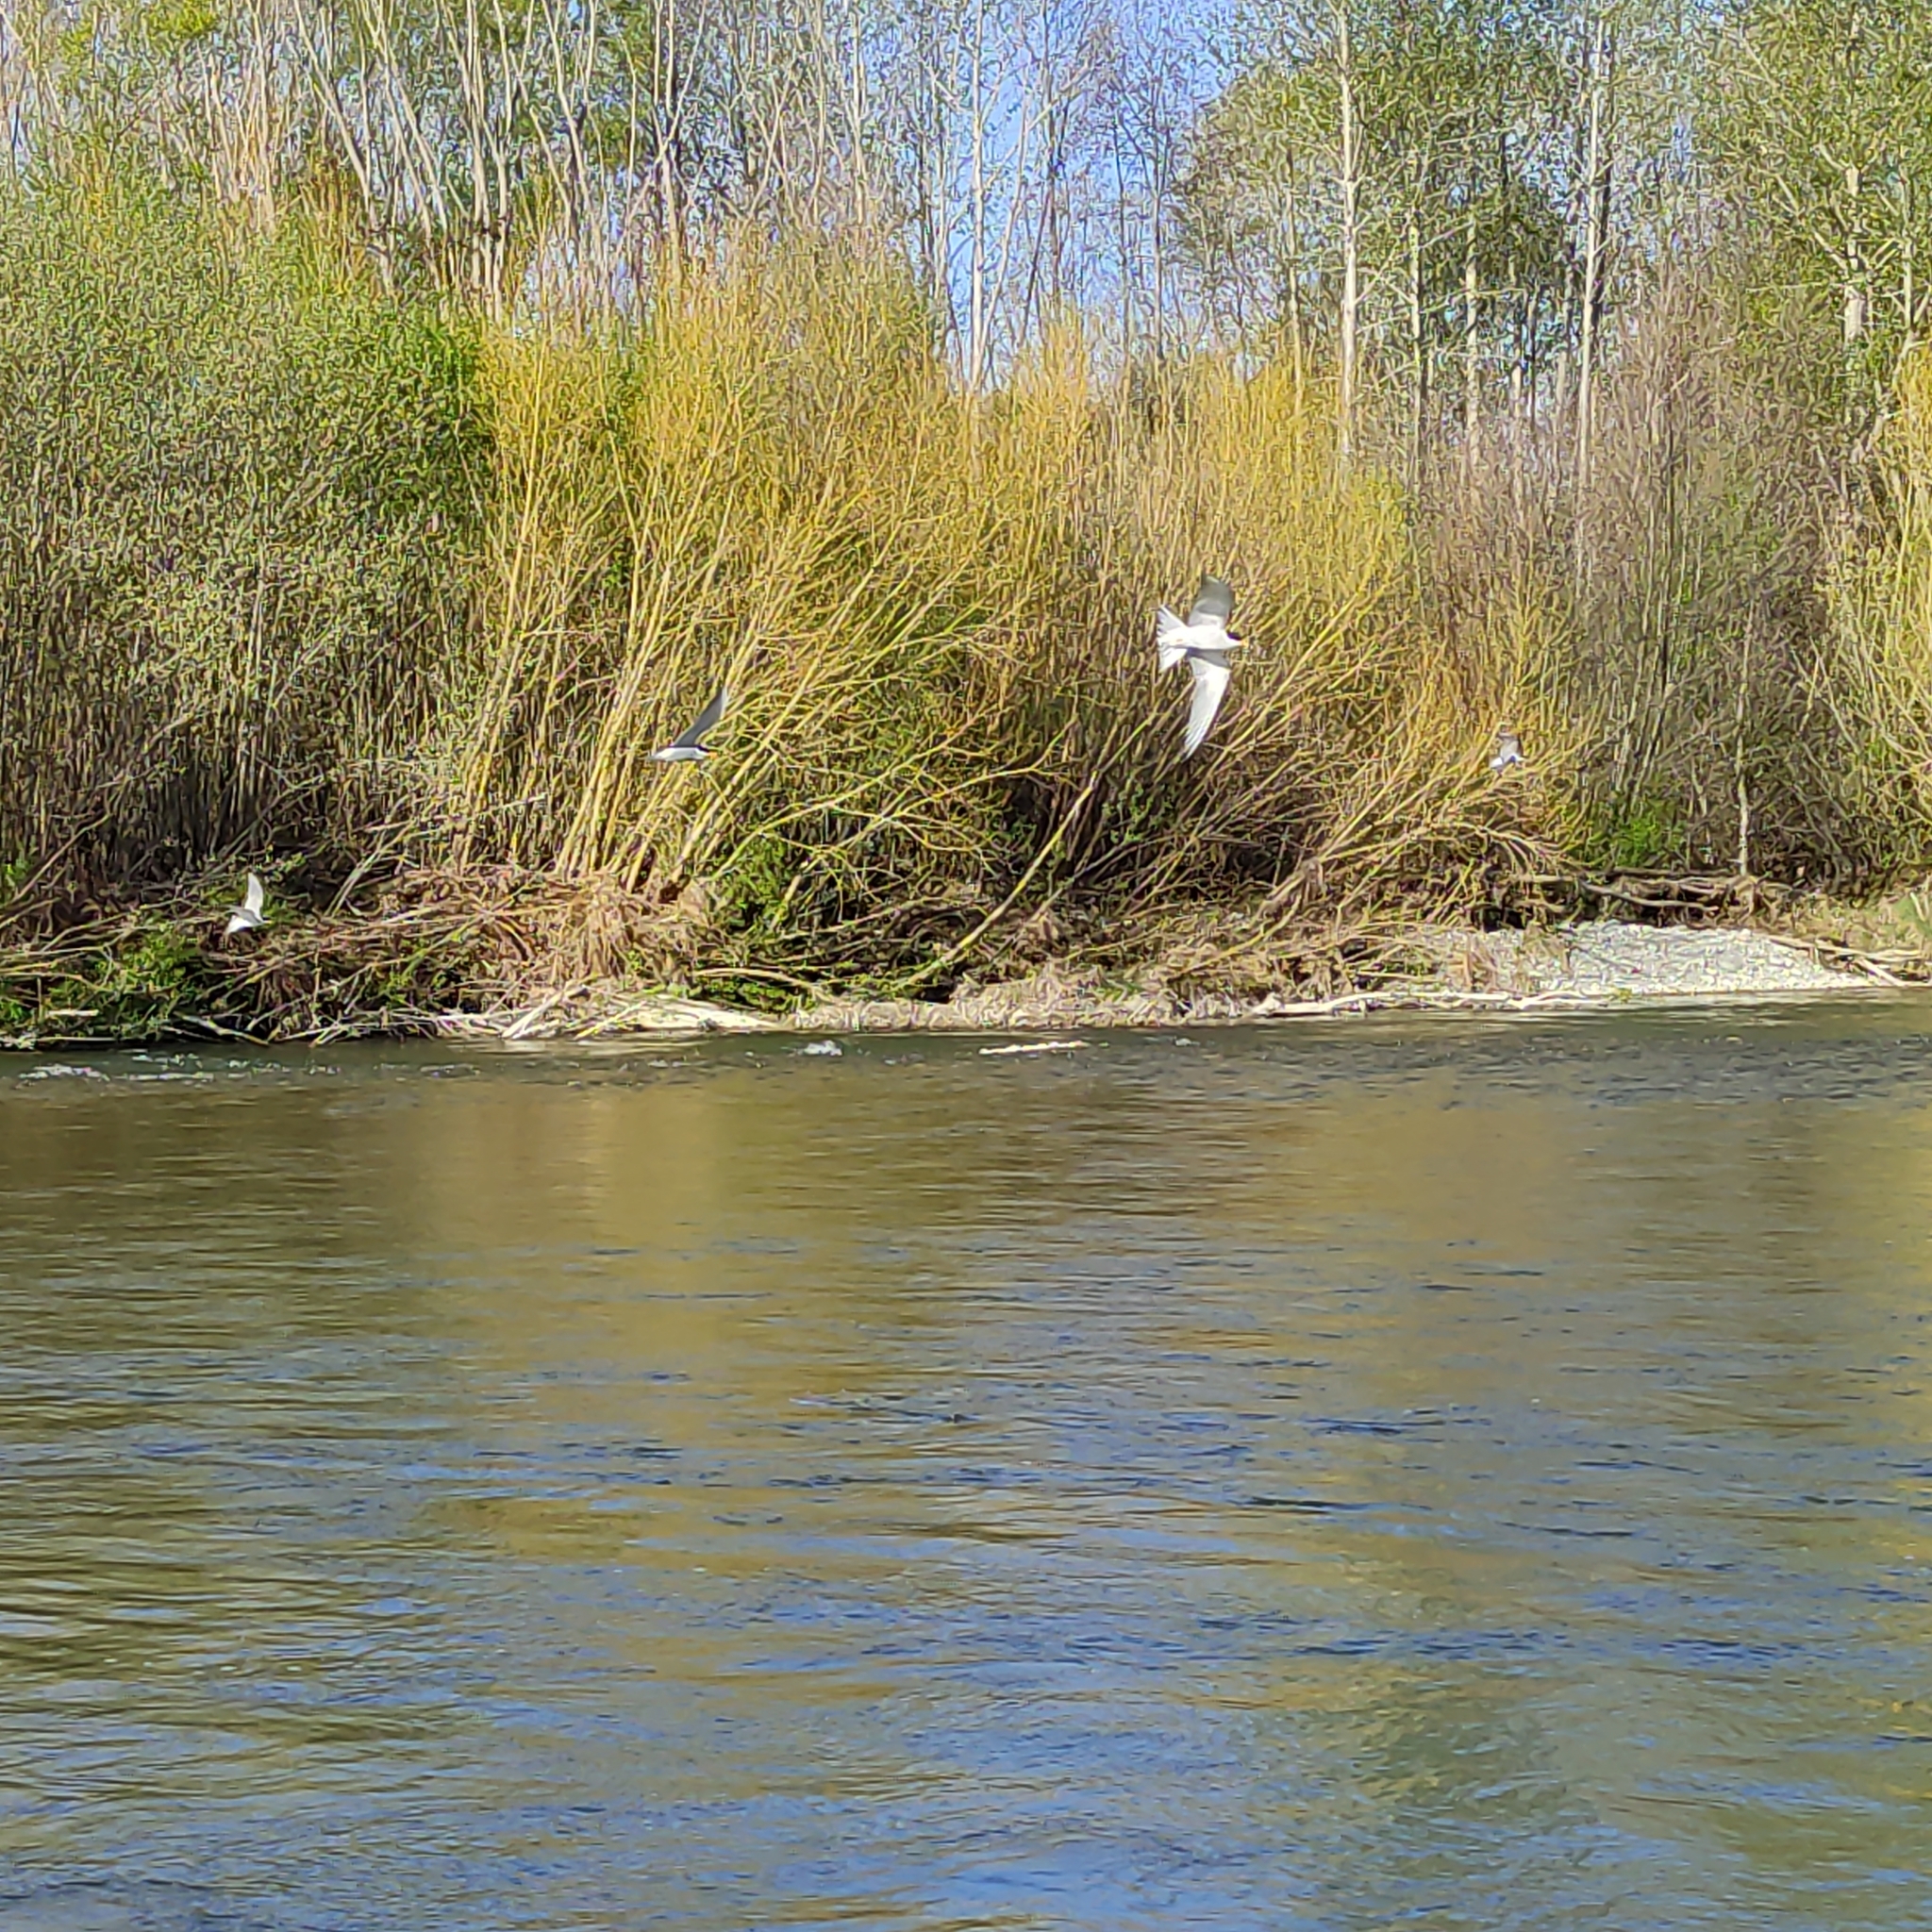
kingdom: Animalia
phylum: Chordata
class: Aves
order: Charadriiformes
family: Laridae
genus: Chlidonias
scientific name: Chlidonias albostriatus
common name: Black-fronted tern
